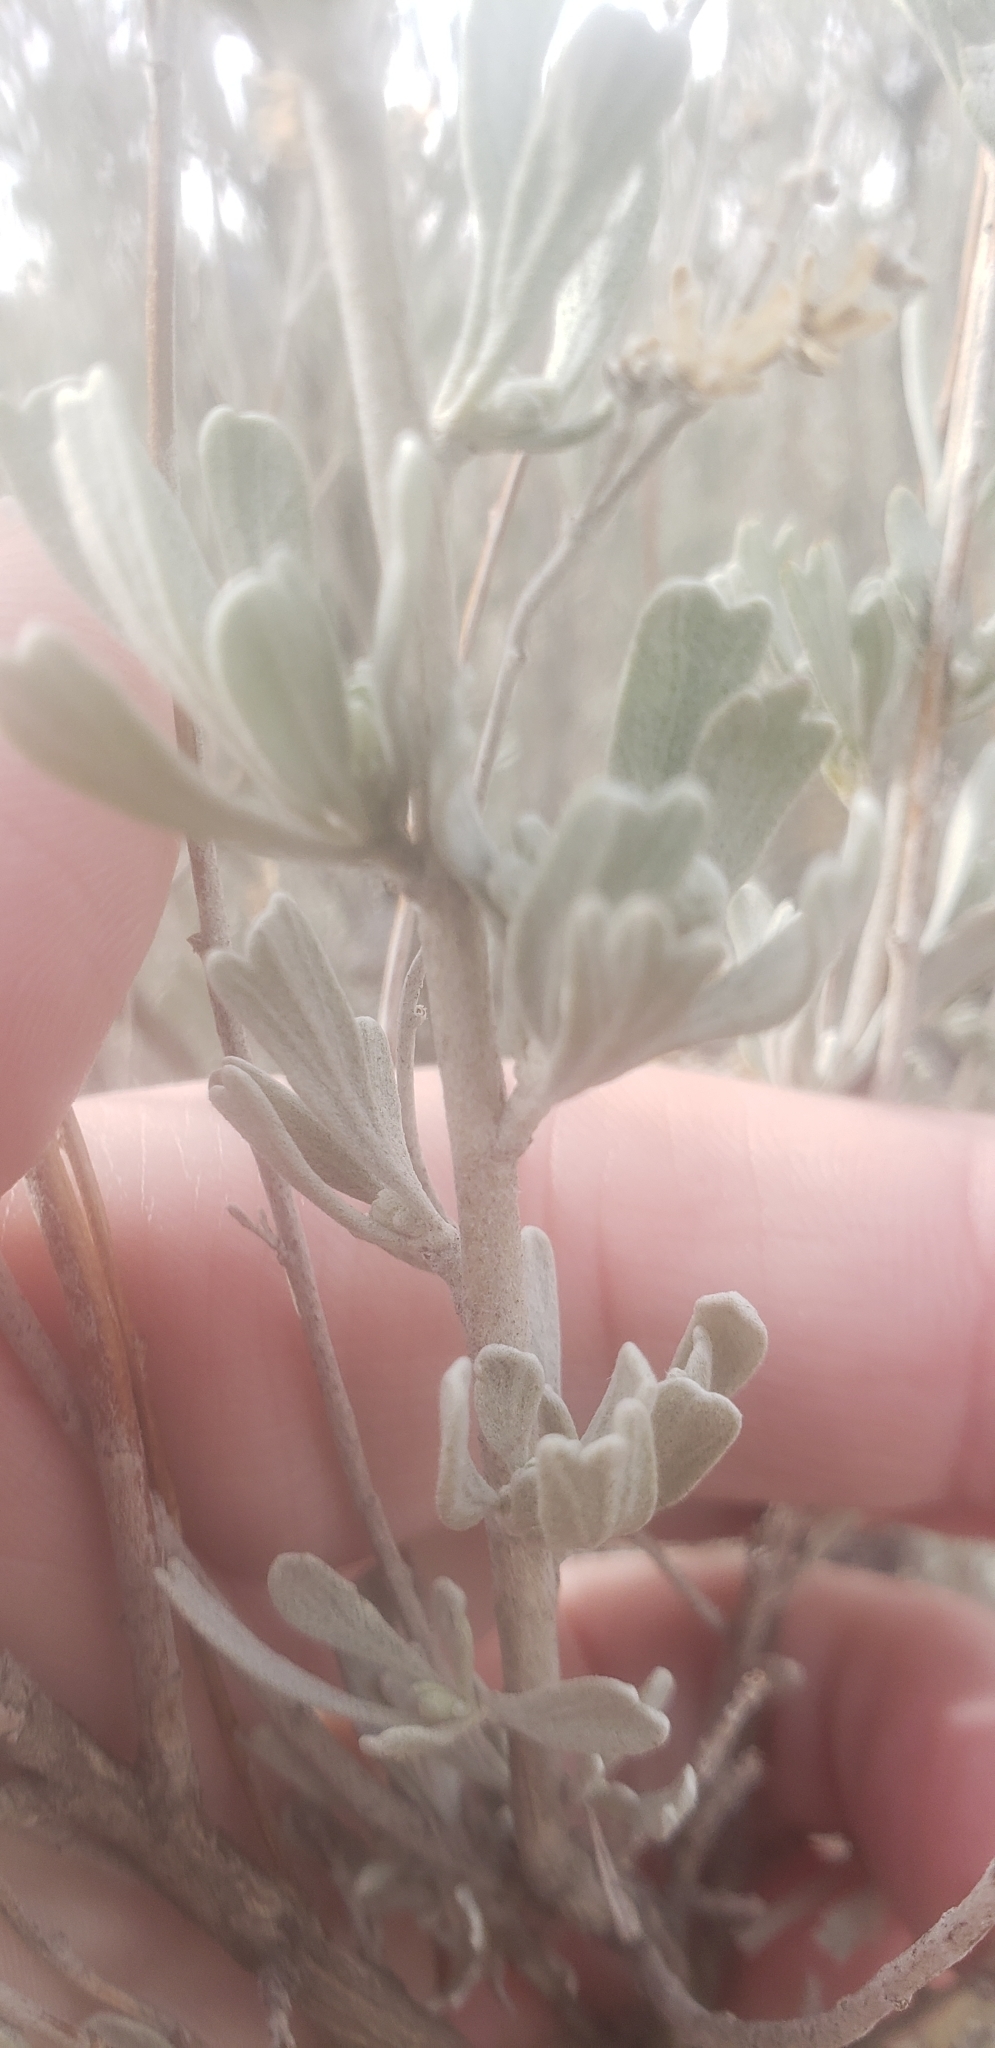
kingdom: Plantae
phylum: Tracheophyta
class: Magnoliopsida
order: Asterales
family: Asteraceae
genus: Artemisia
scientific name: Artemisia tridentata
